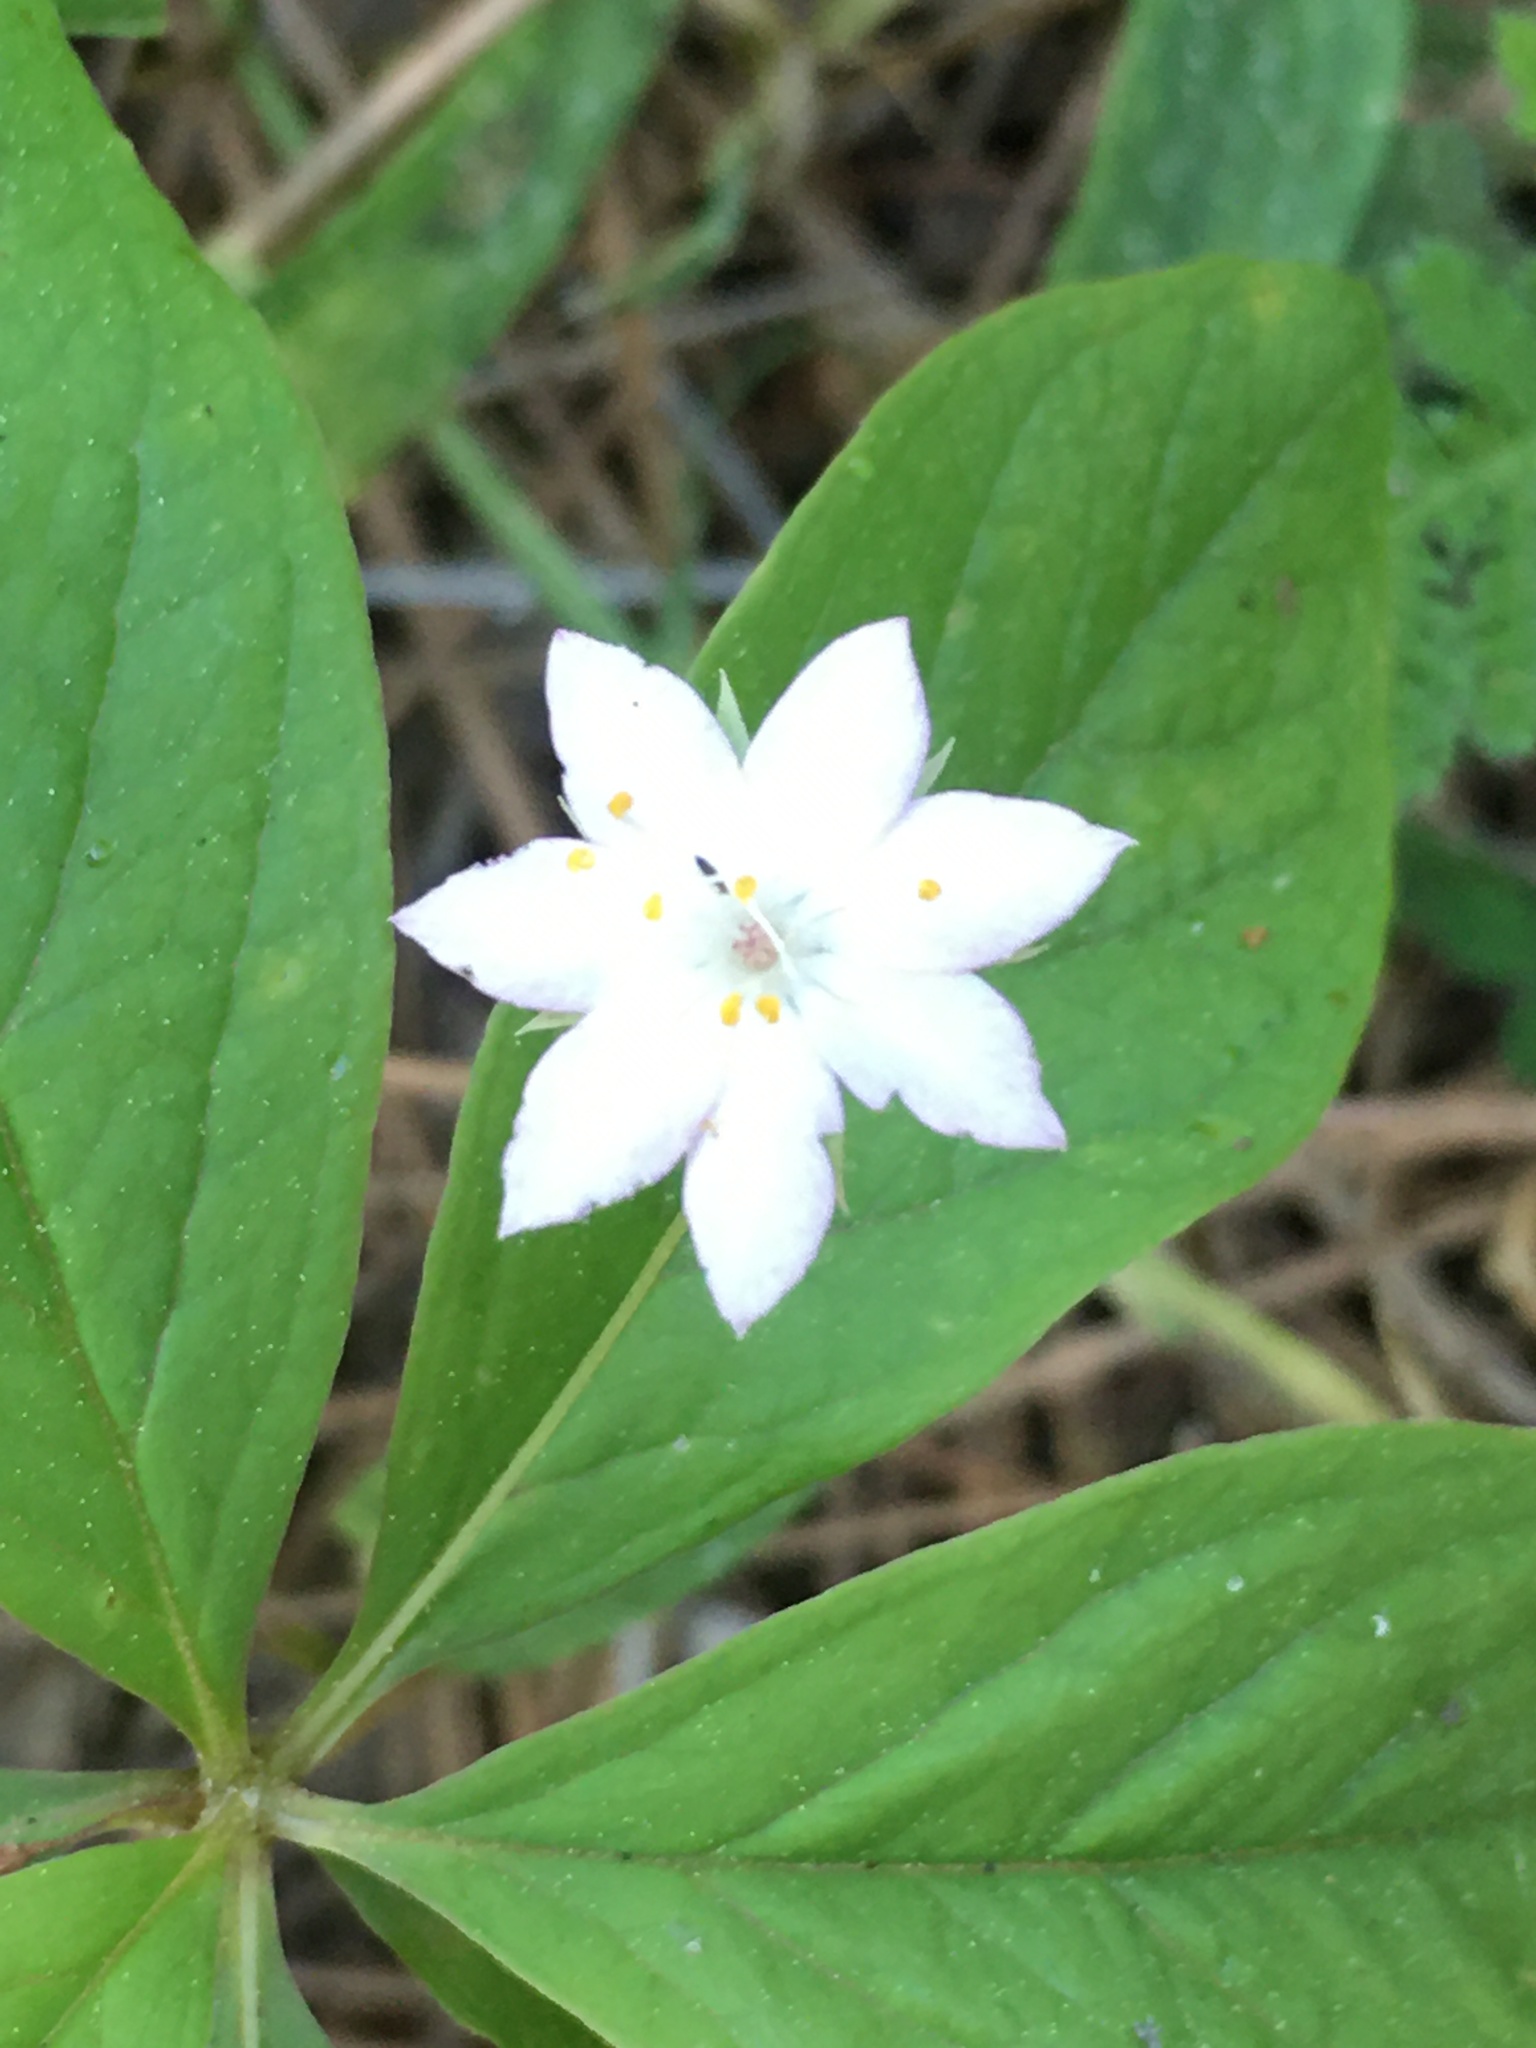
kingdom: Plantae
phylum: Tracheophyta
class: Magnoliopsida
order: Ericales
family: Primulaceae
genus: Lysimachia
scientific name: Lysimachia latifolia
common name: Pacific starflower
